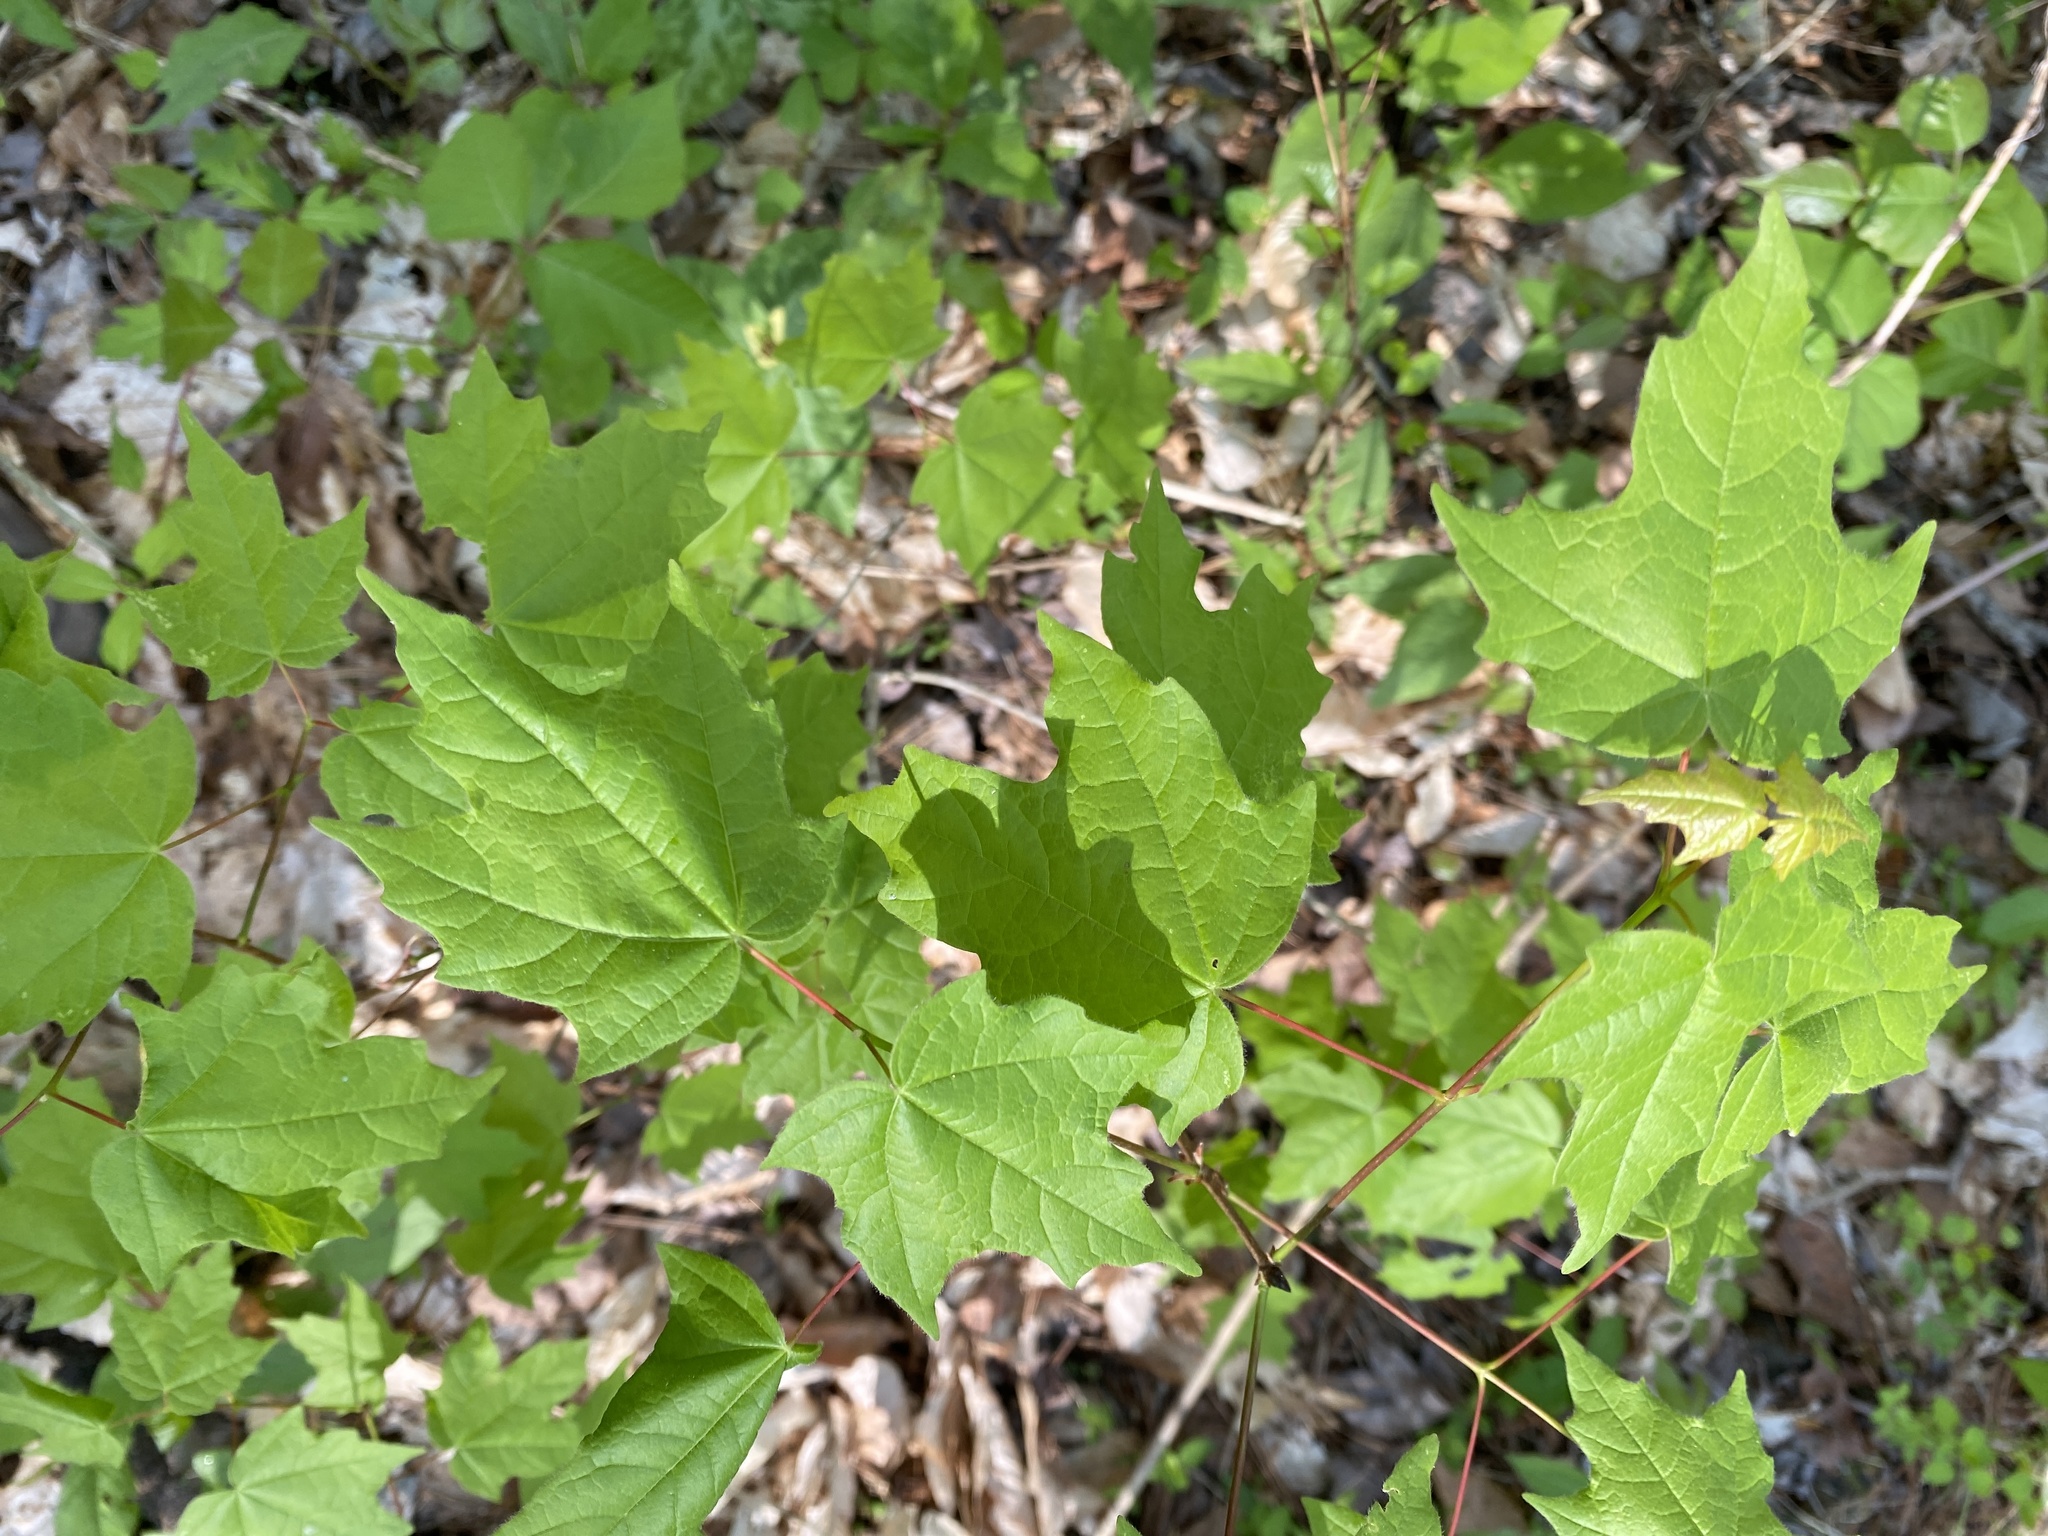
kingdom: Plantae
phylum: Tracheophyta
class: Magnoliopsida
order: Sapindales
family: Sapindaceae
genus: Acer
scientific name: Acer floridanum
